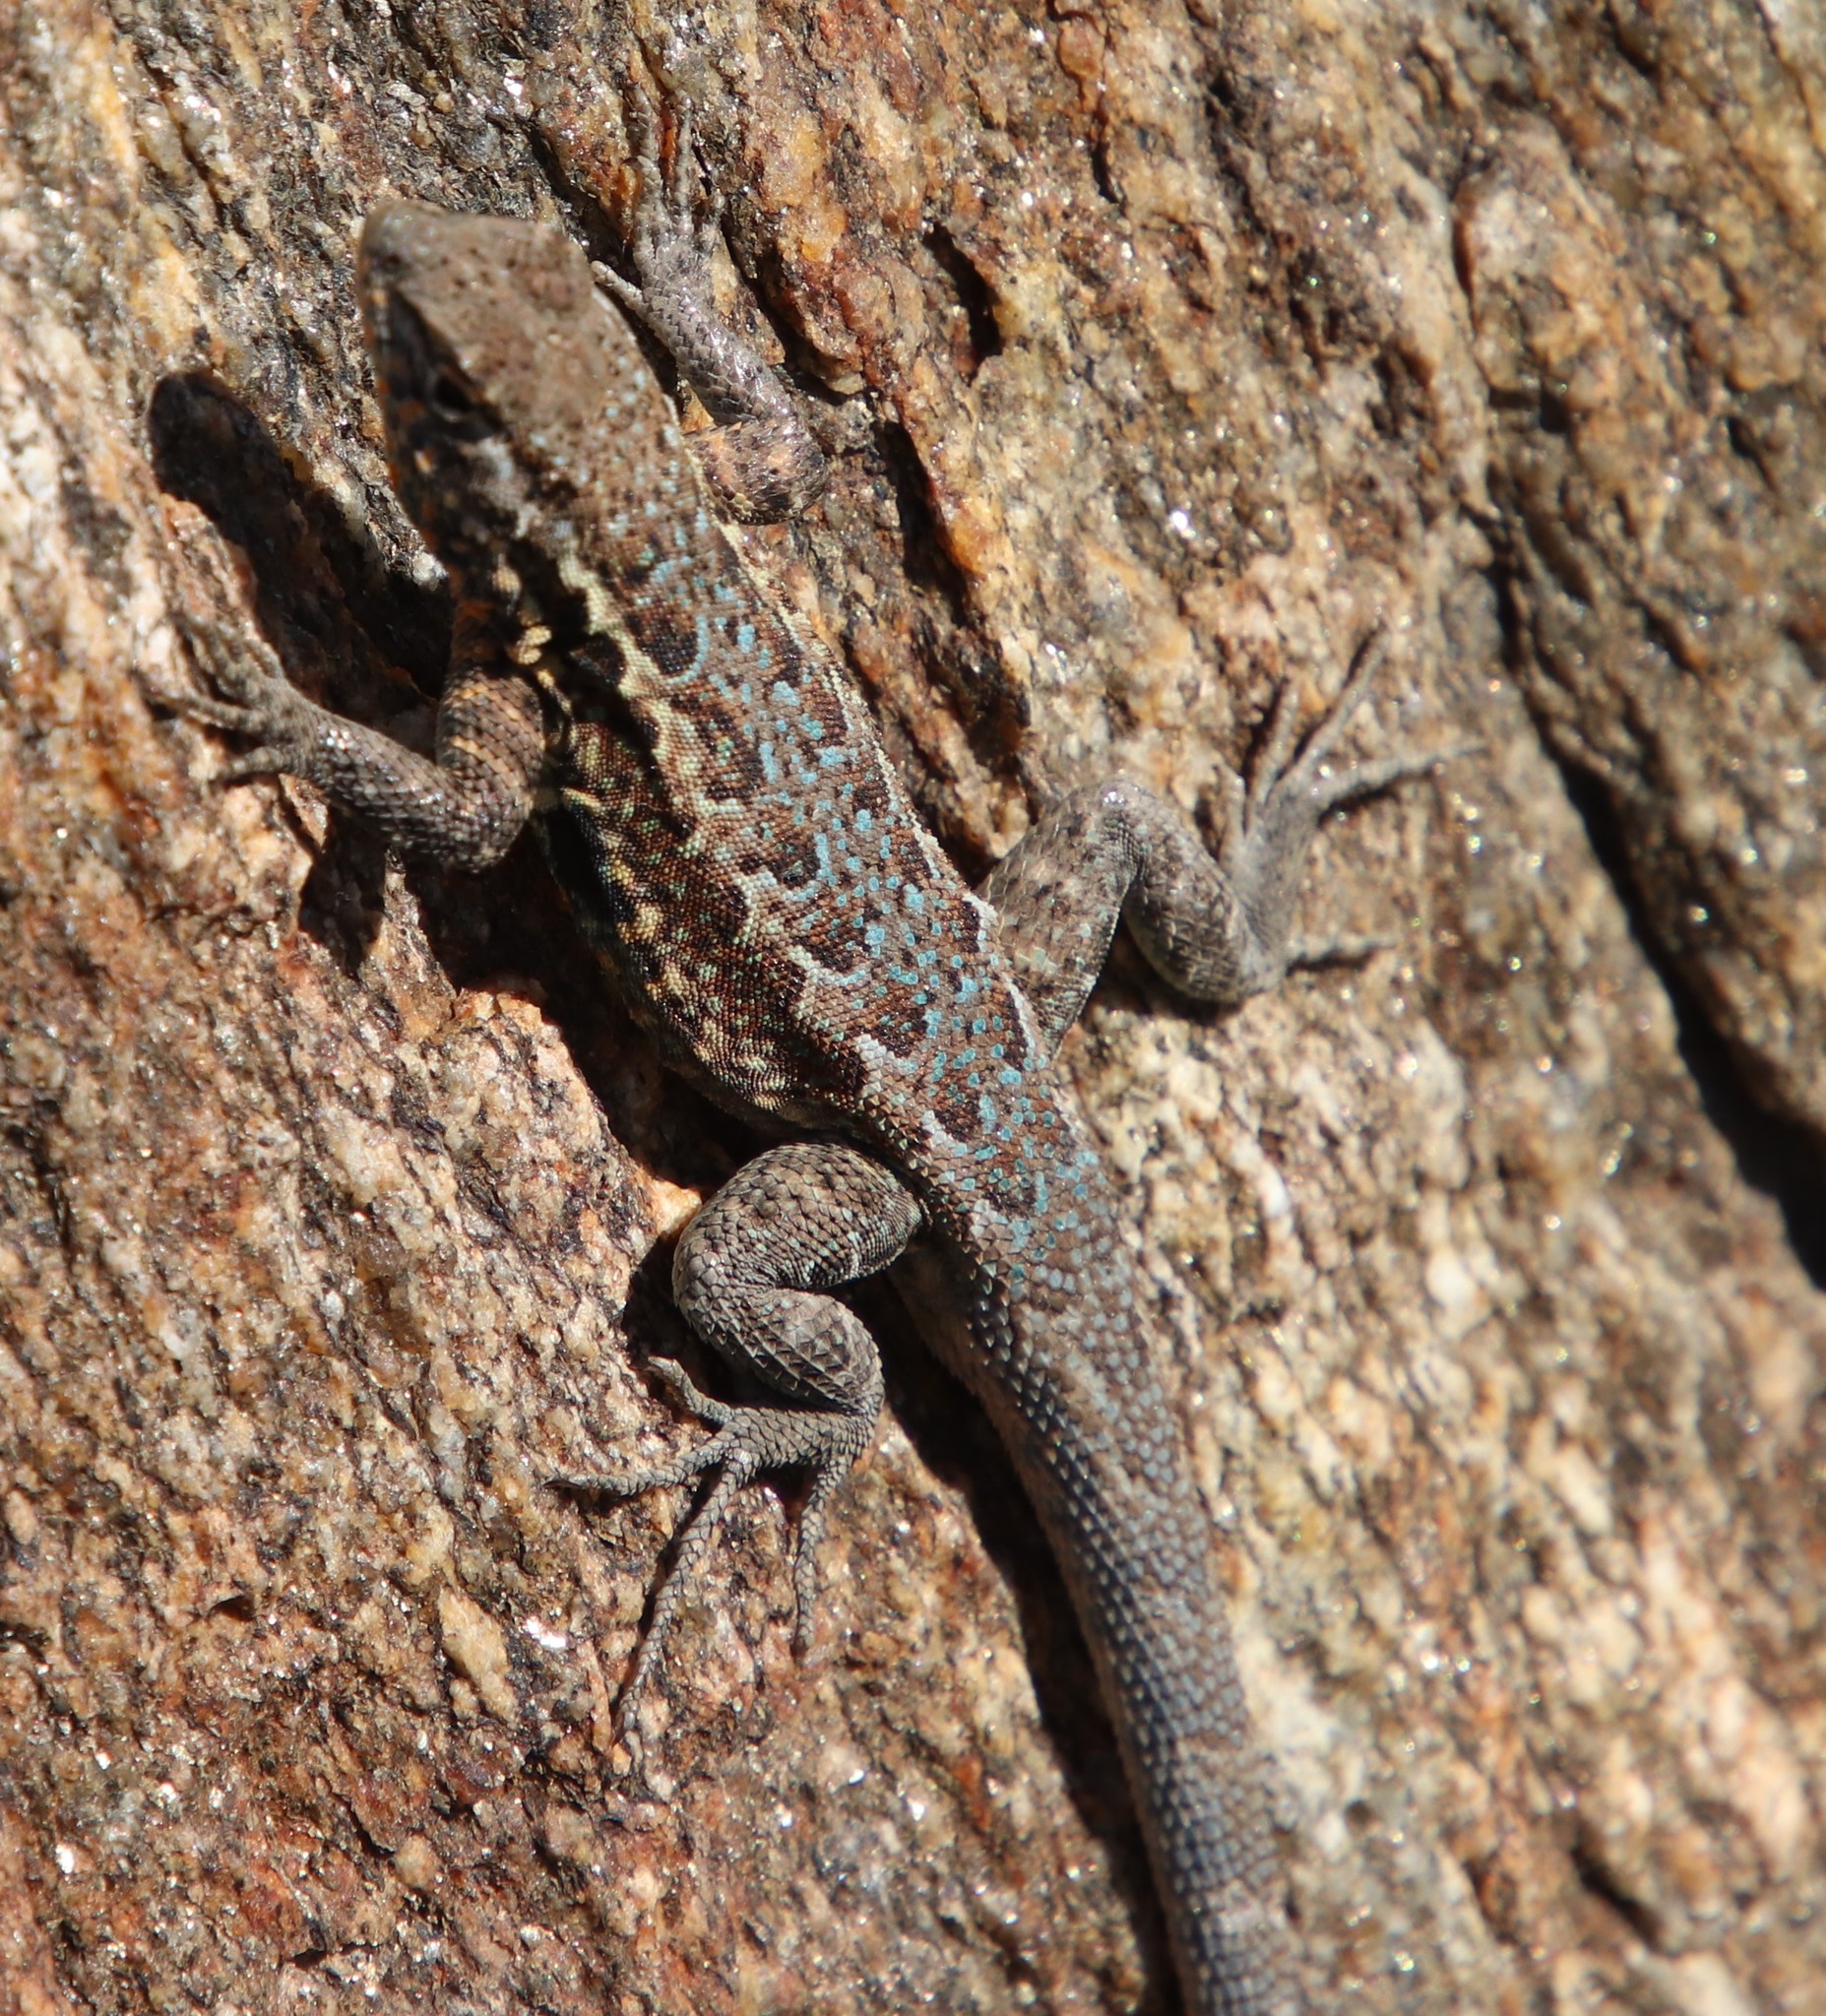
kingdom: Animalia
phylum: Chordata
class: Squamata
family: Phrynosomatidae
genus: Uta
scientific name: Uta stansburiana
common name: Side-blotched lizard
